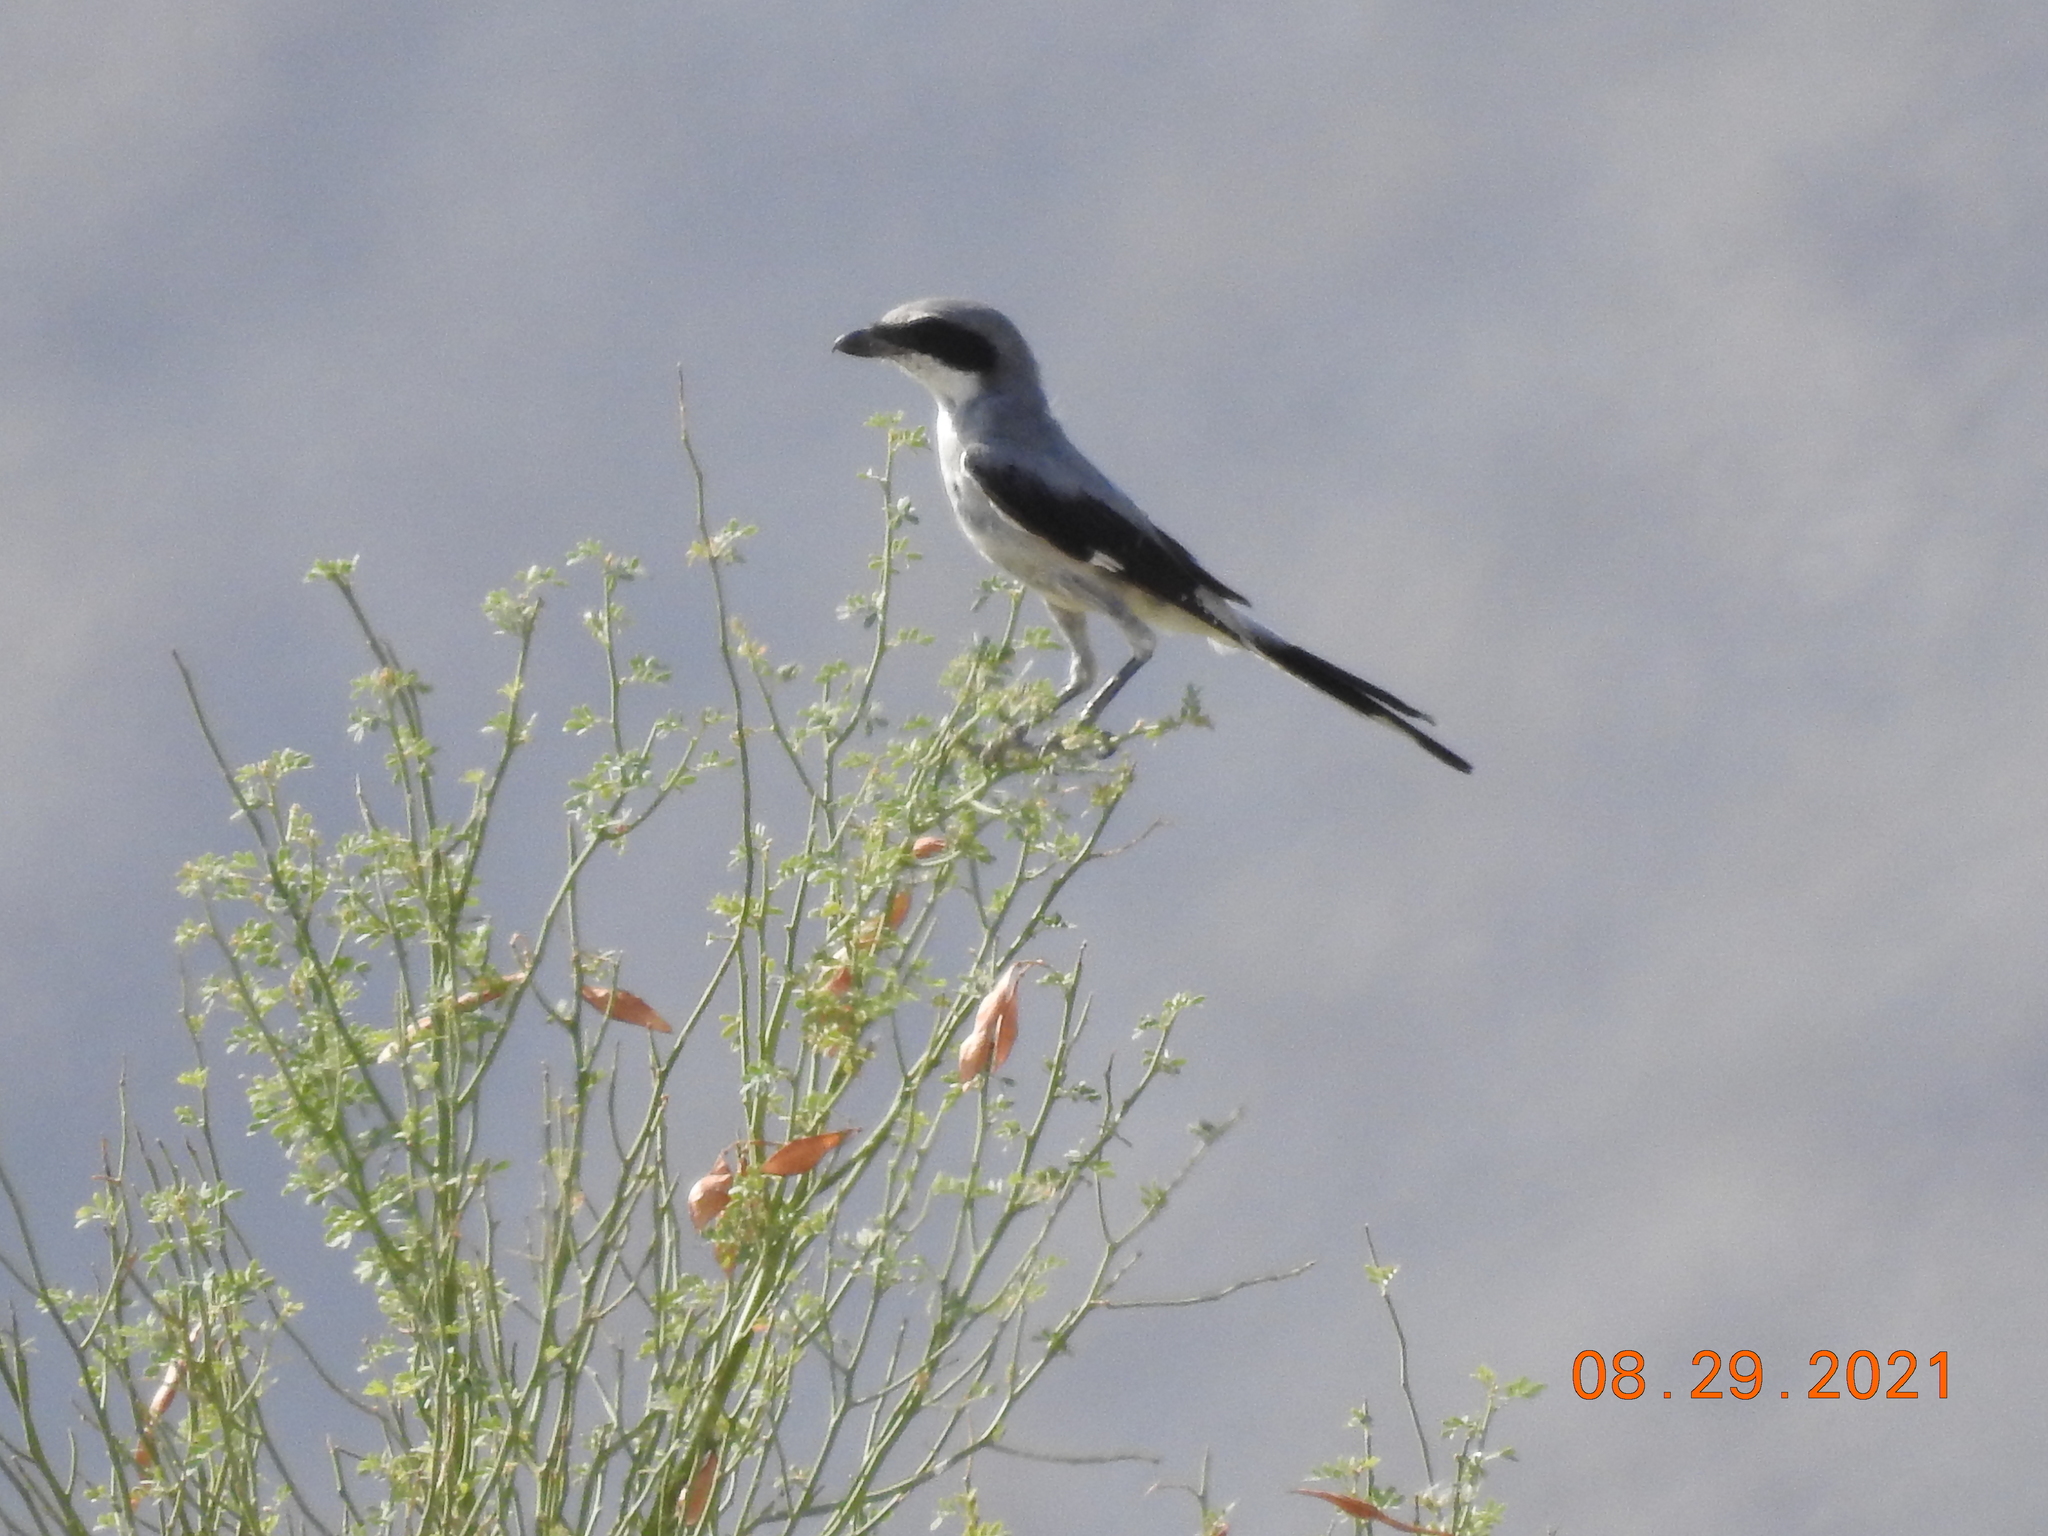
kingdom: Animalia
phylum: Chordata
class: Aves
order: Passeriformes
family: Laniidae
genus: Lanius
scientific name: Lanius ludovicianus
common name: Loggerhead shrike
